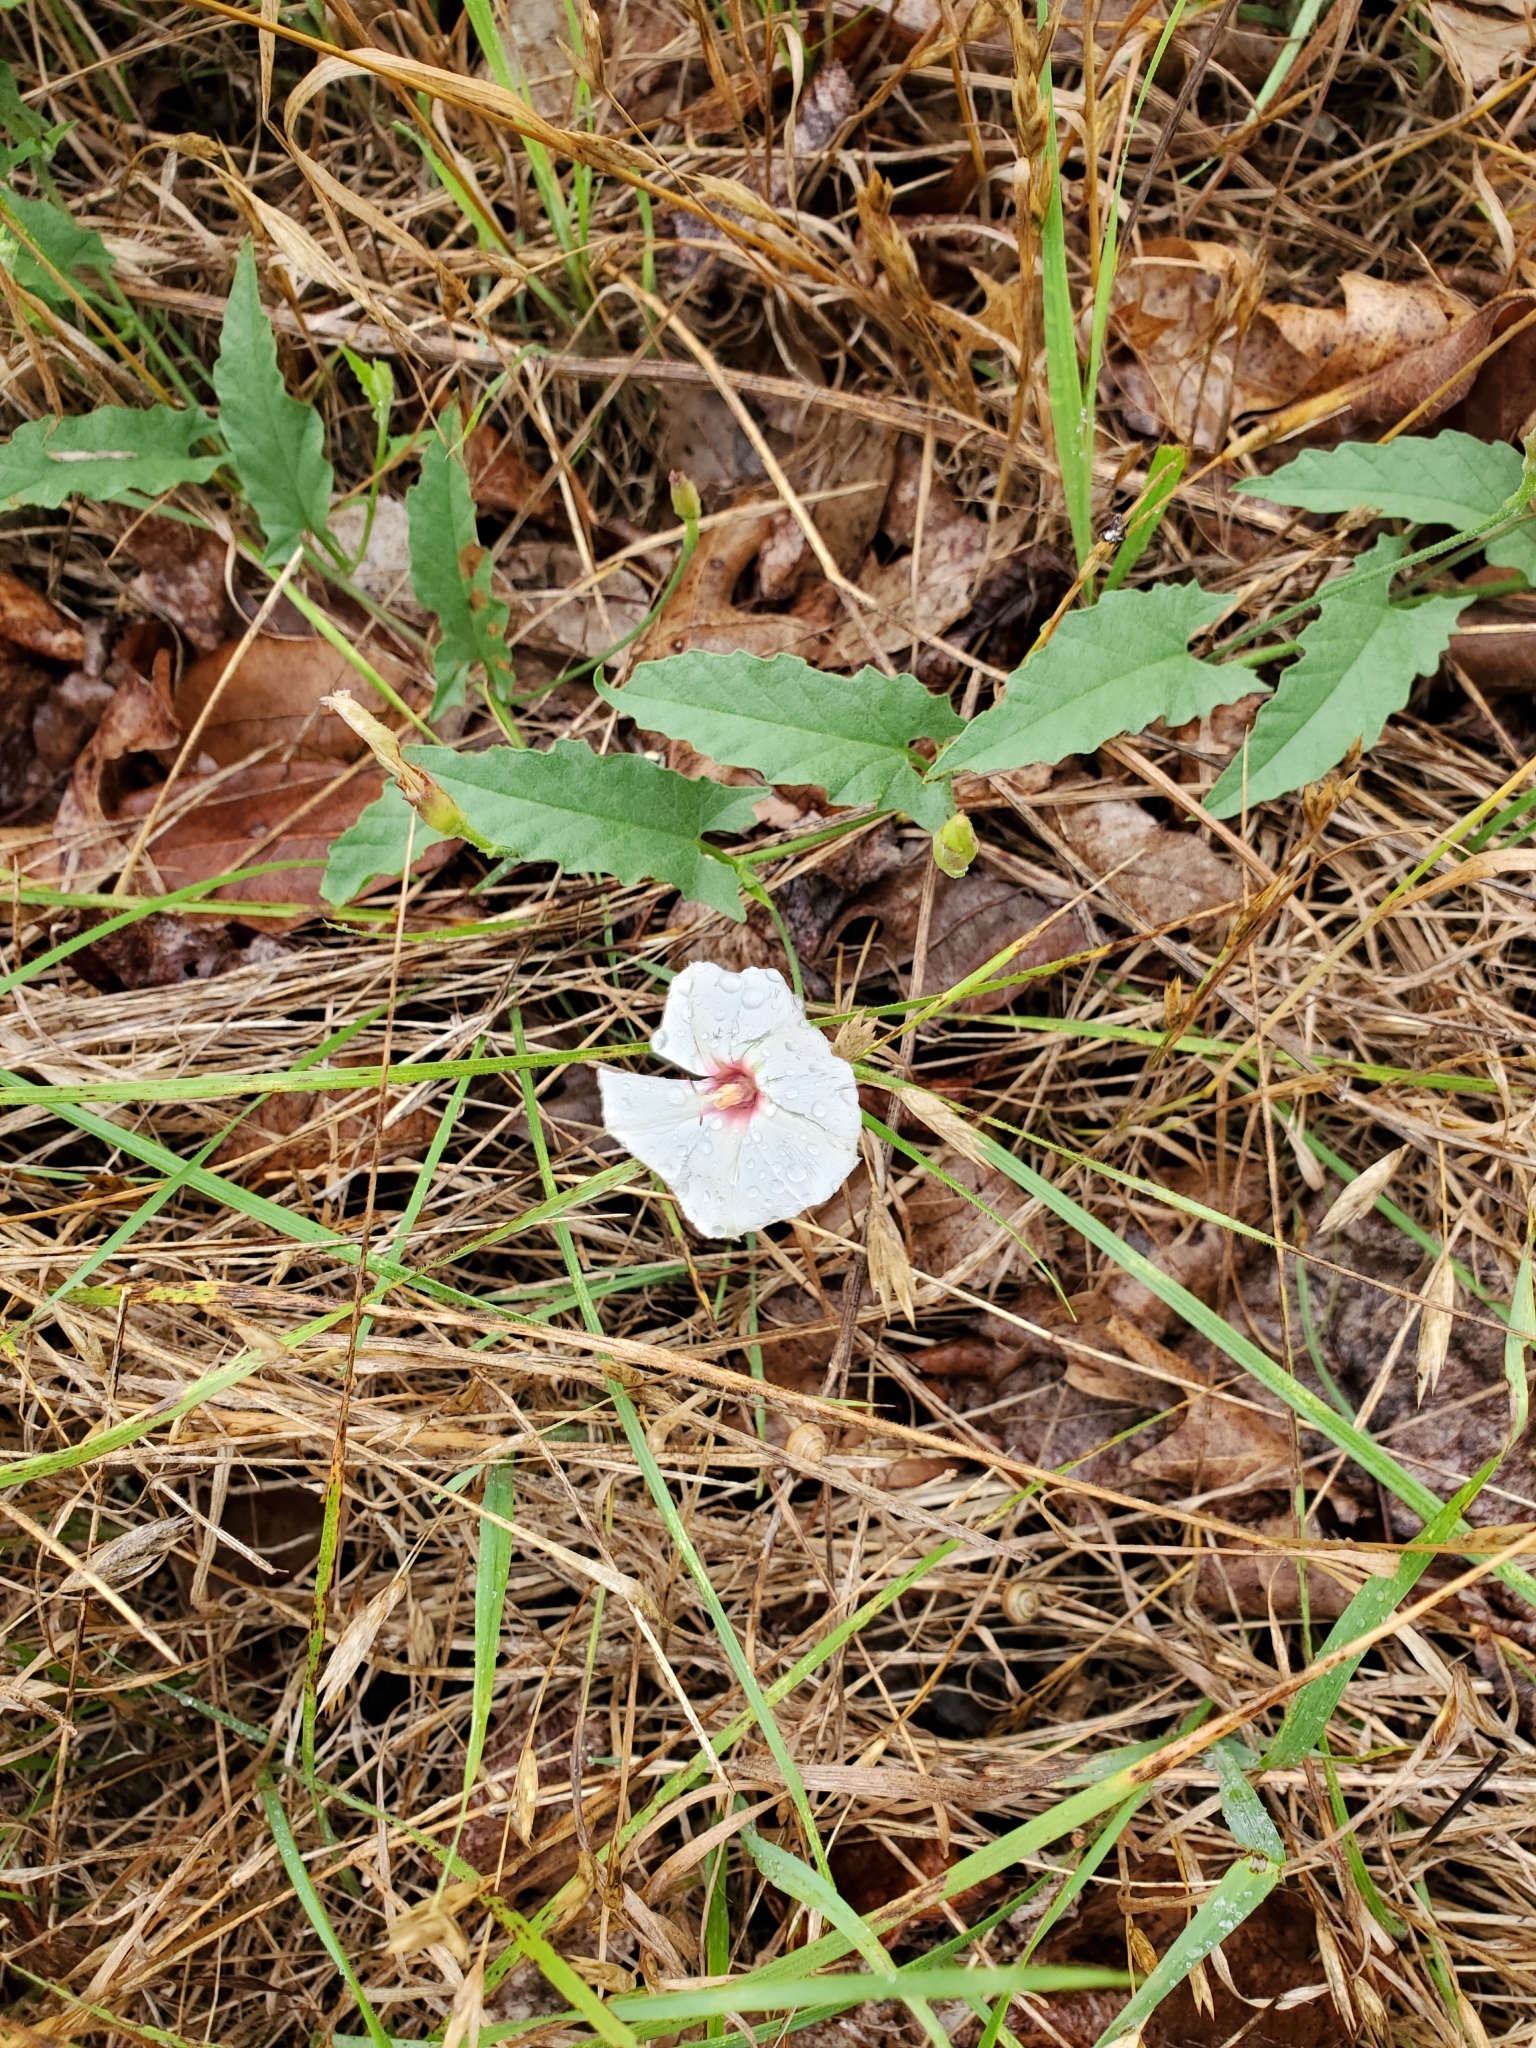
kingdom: Plantae
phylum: Tracheophyta
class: Magnoliopsida
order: Solanales
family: Convolvulaceae
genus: Convolvulus
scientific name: Convolvulus equitans
